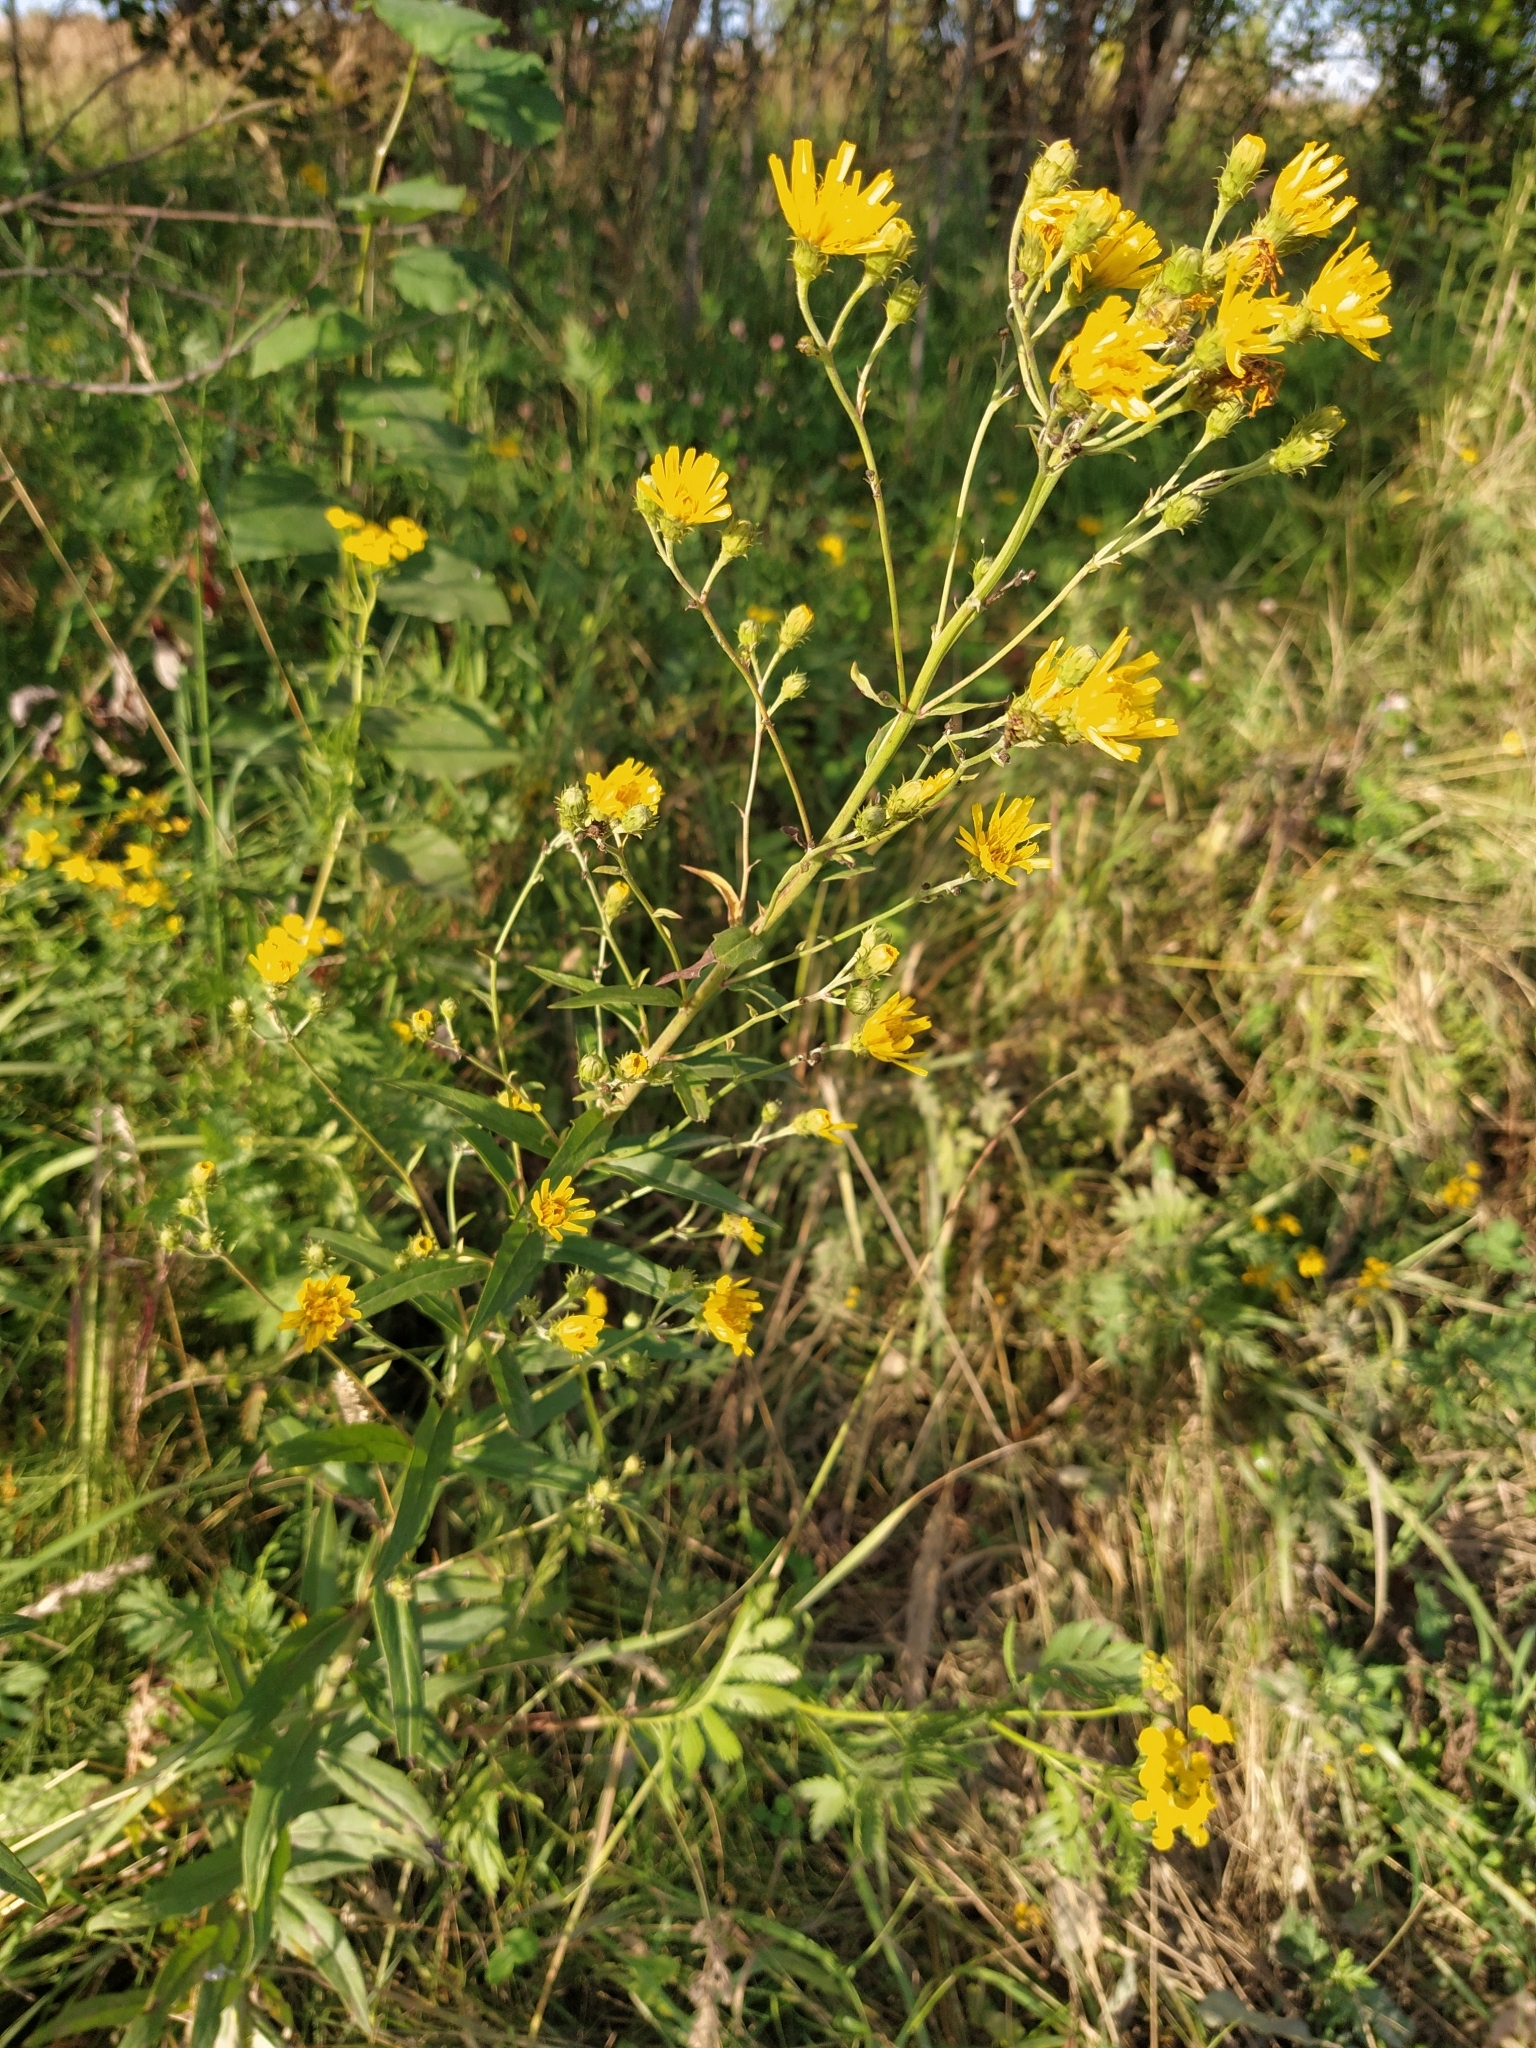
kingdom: Plantae
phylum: Tracheophyta
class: Magnoliopsida
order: Asterales
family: Asteraceae
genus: Hieracium
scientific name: Hieracium umbellatum
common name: Northern hawkweed
